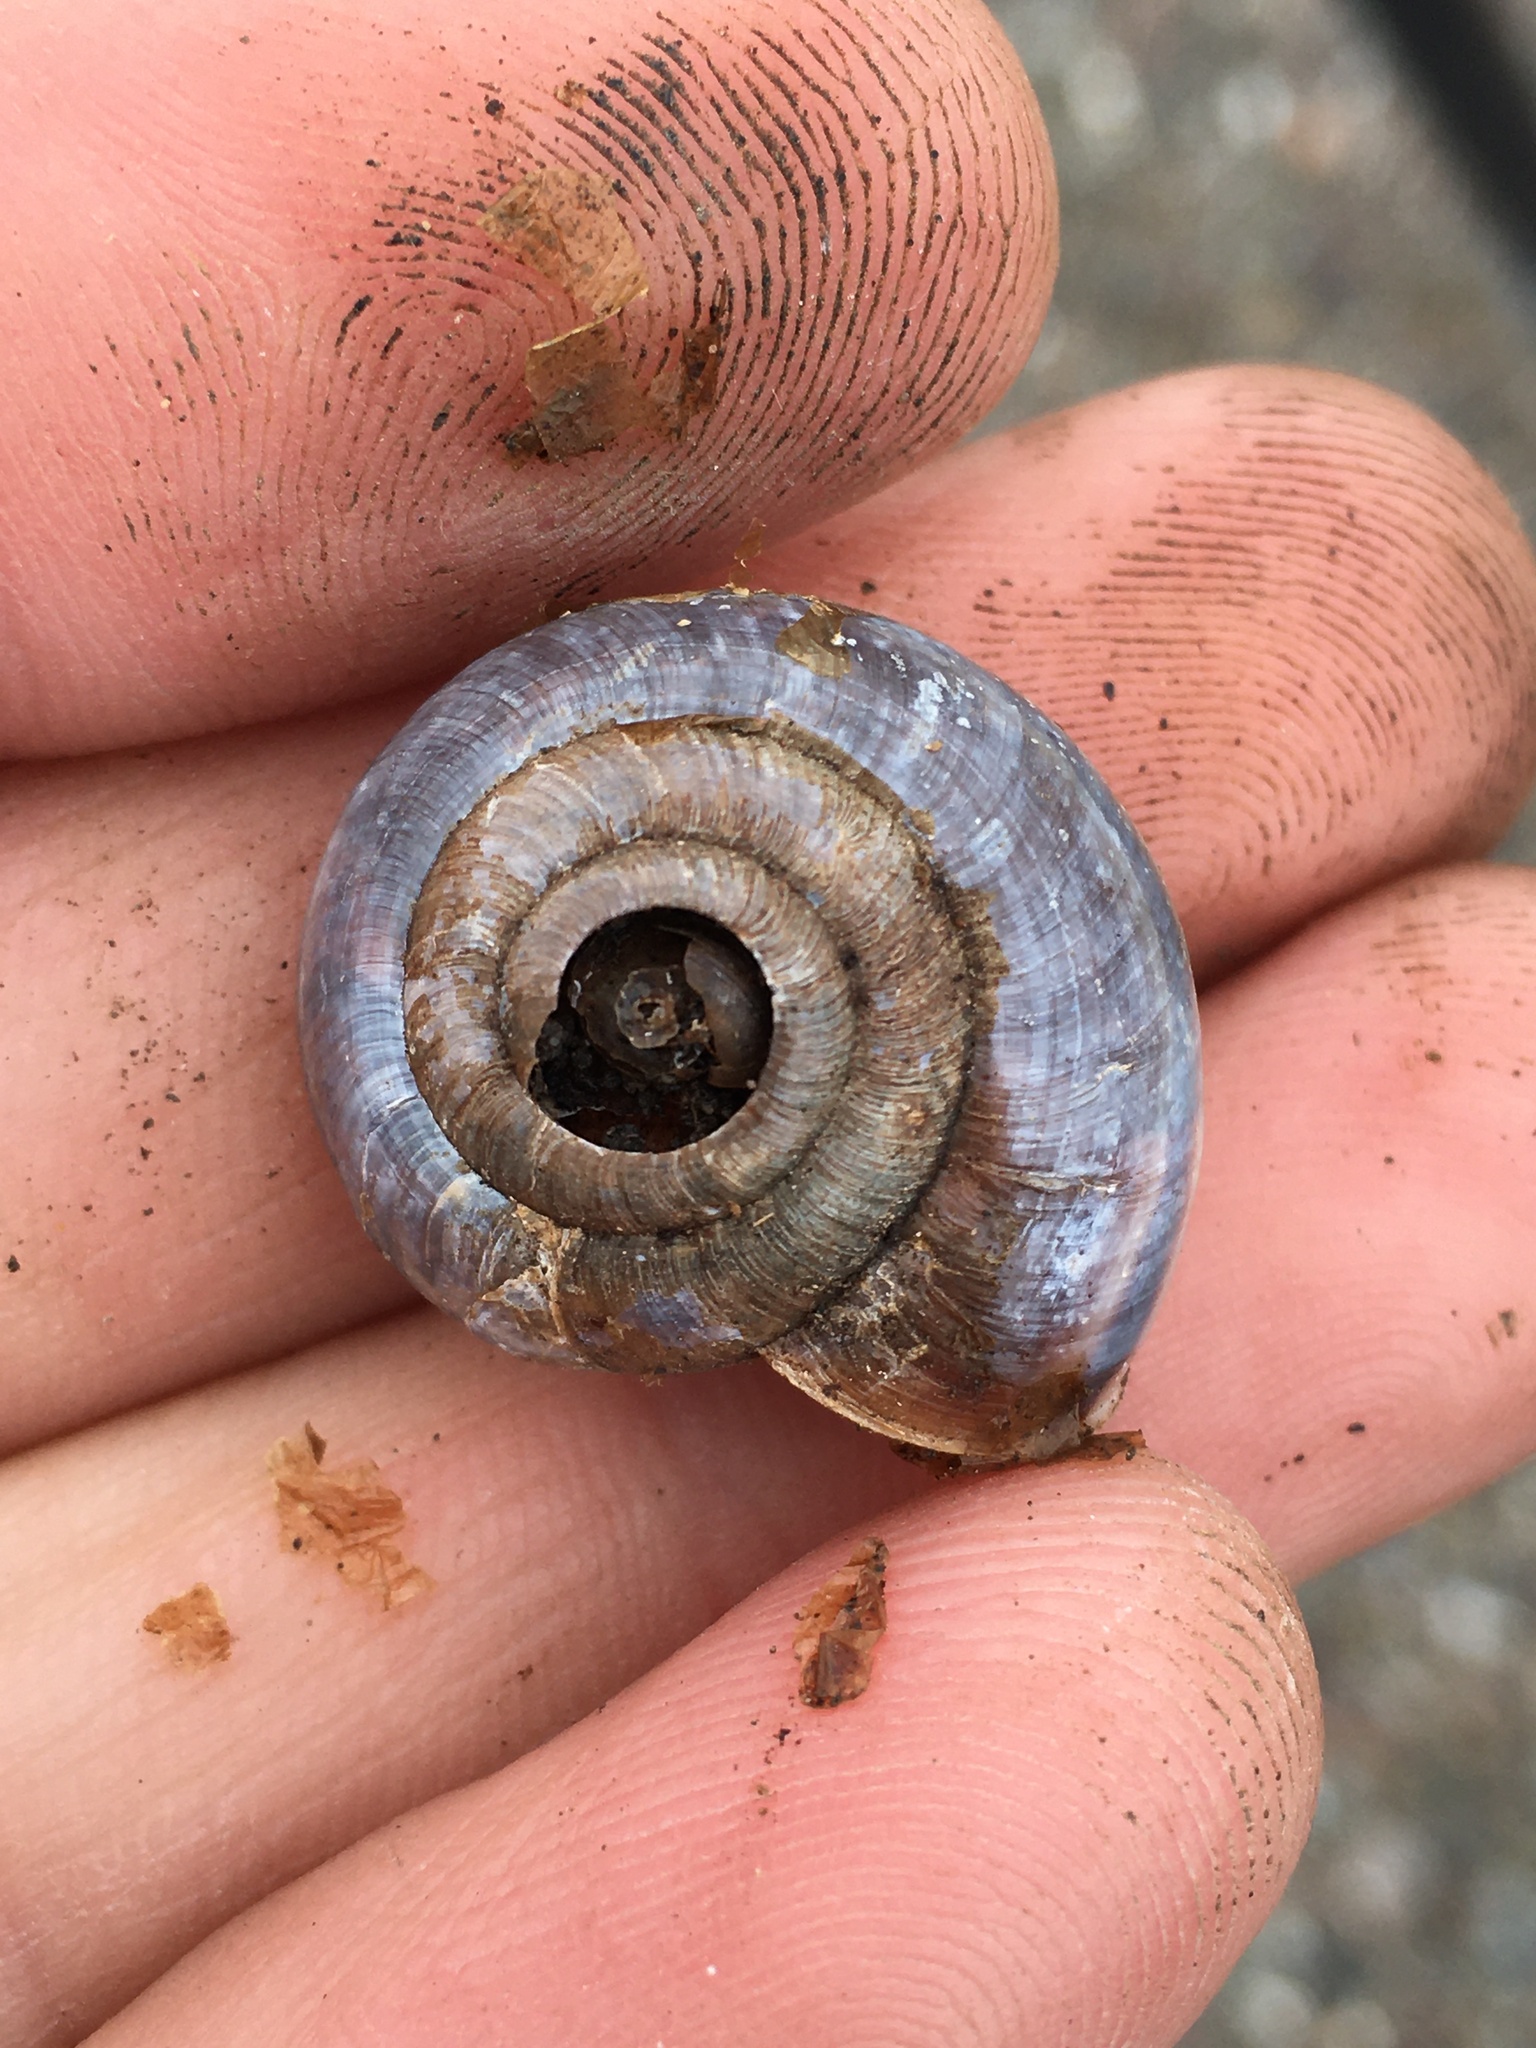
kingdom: Animalia
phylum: Mollusca
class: Gastropoda
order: Stylommatophora
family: Xanthonychidae
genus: Helminthoglypta
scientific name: Helminthoglypta umbilicata
